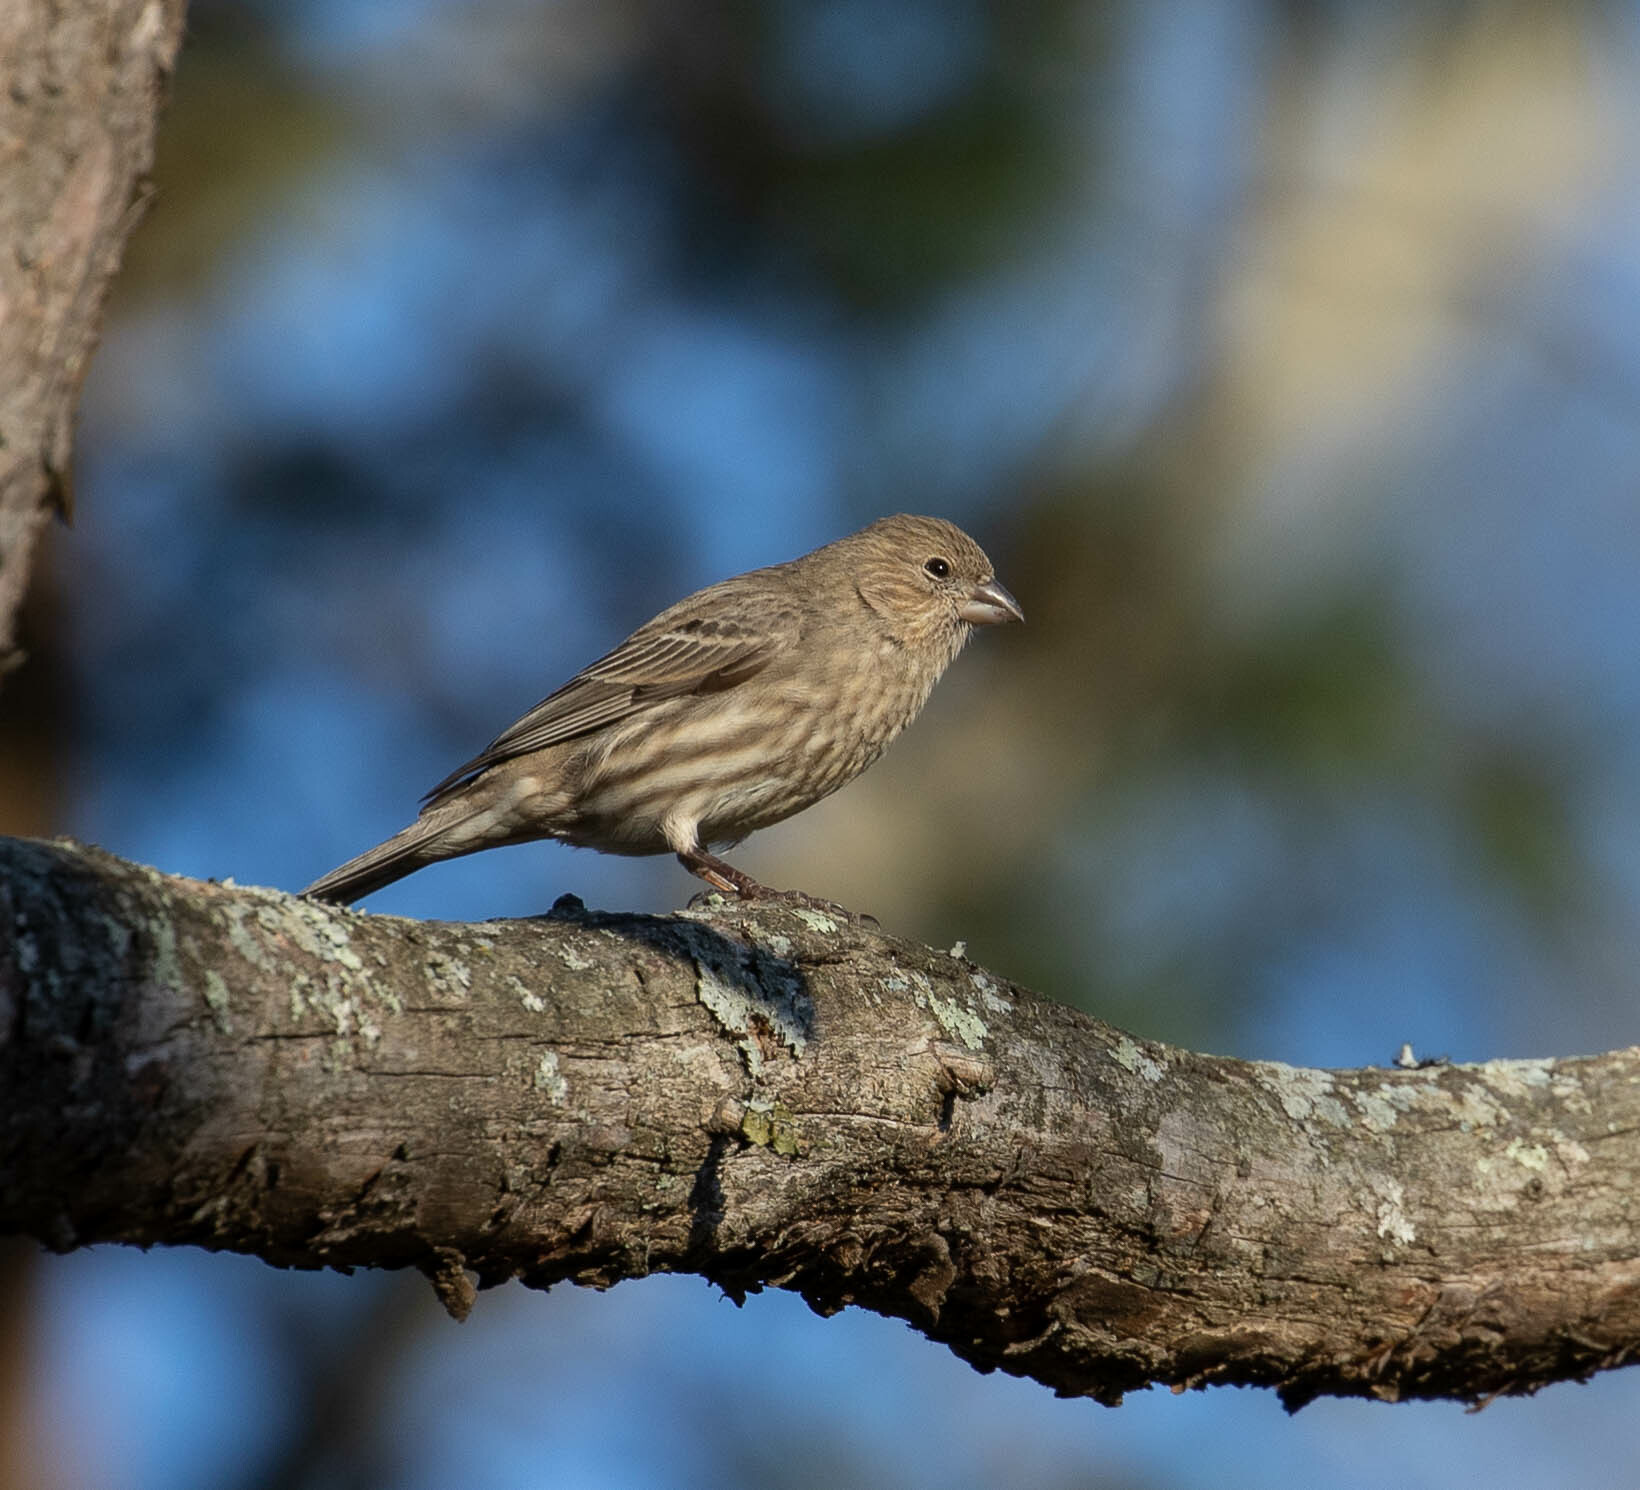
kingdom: Animalia
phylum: Chordata
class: Aves
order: Passeriformes
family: Fringillidae
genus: Haemorhous
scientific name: Haemorhous mexicanus
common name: House finch
